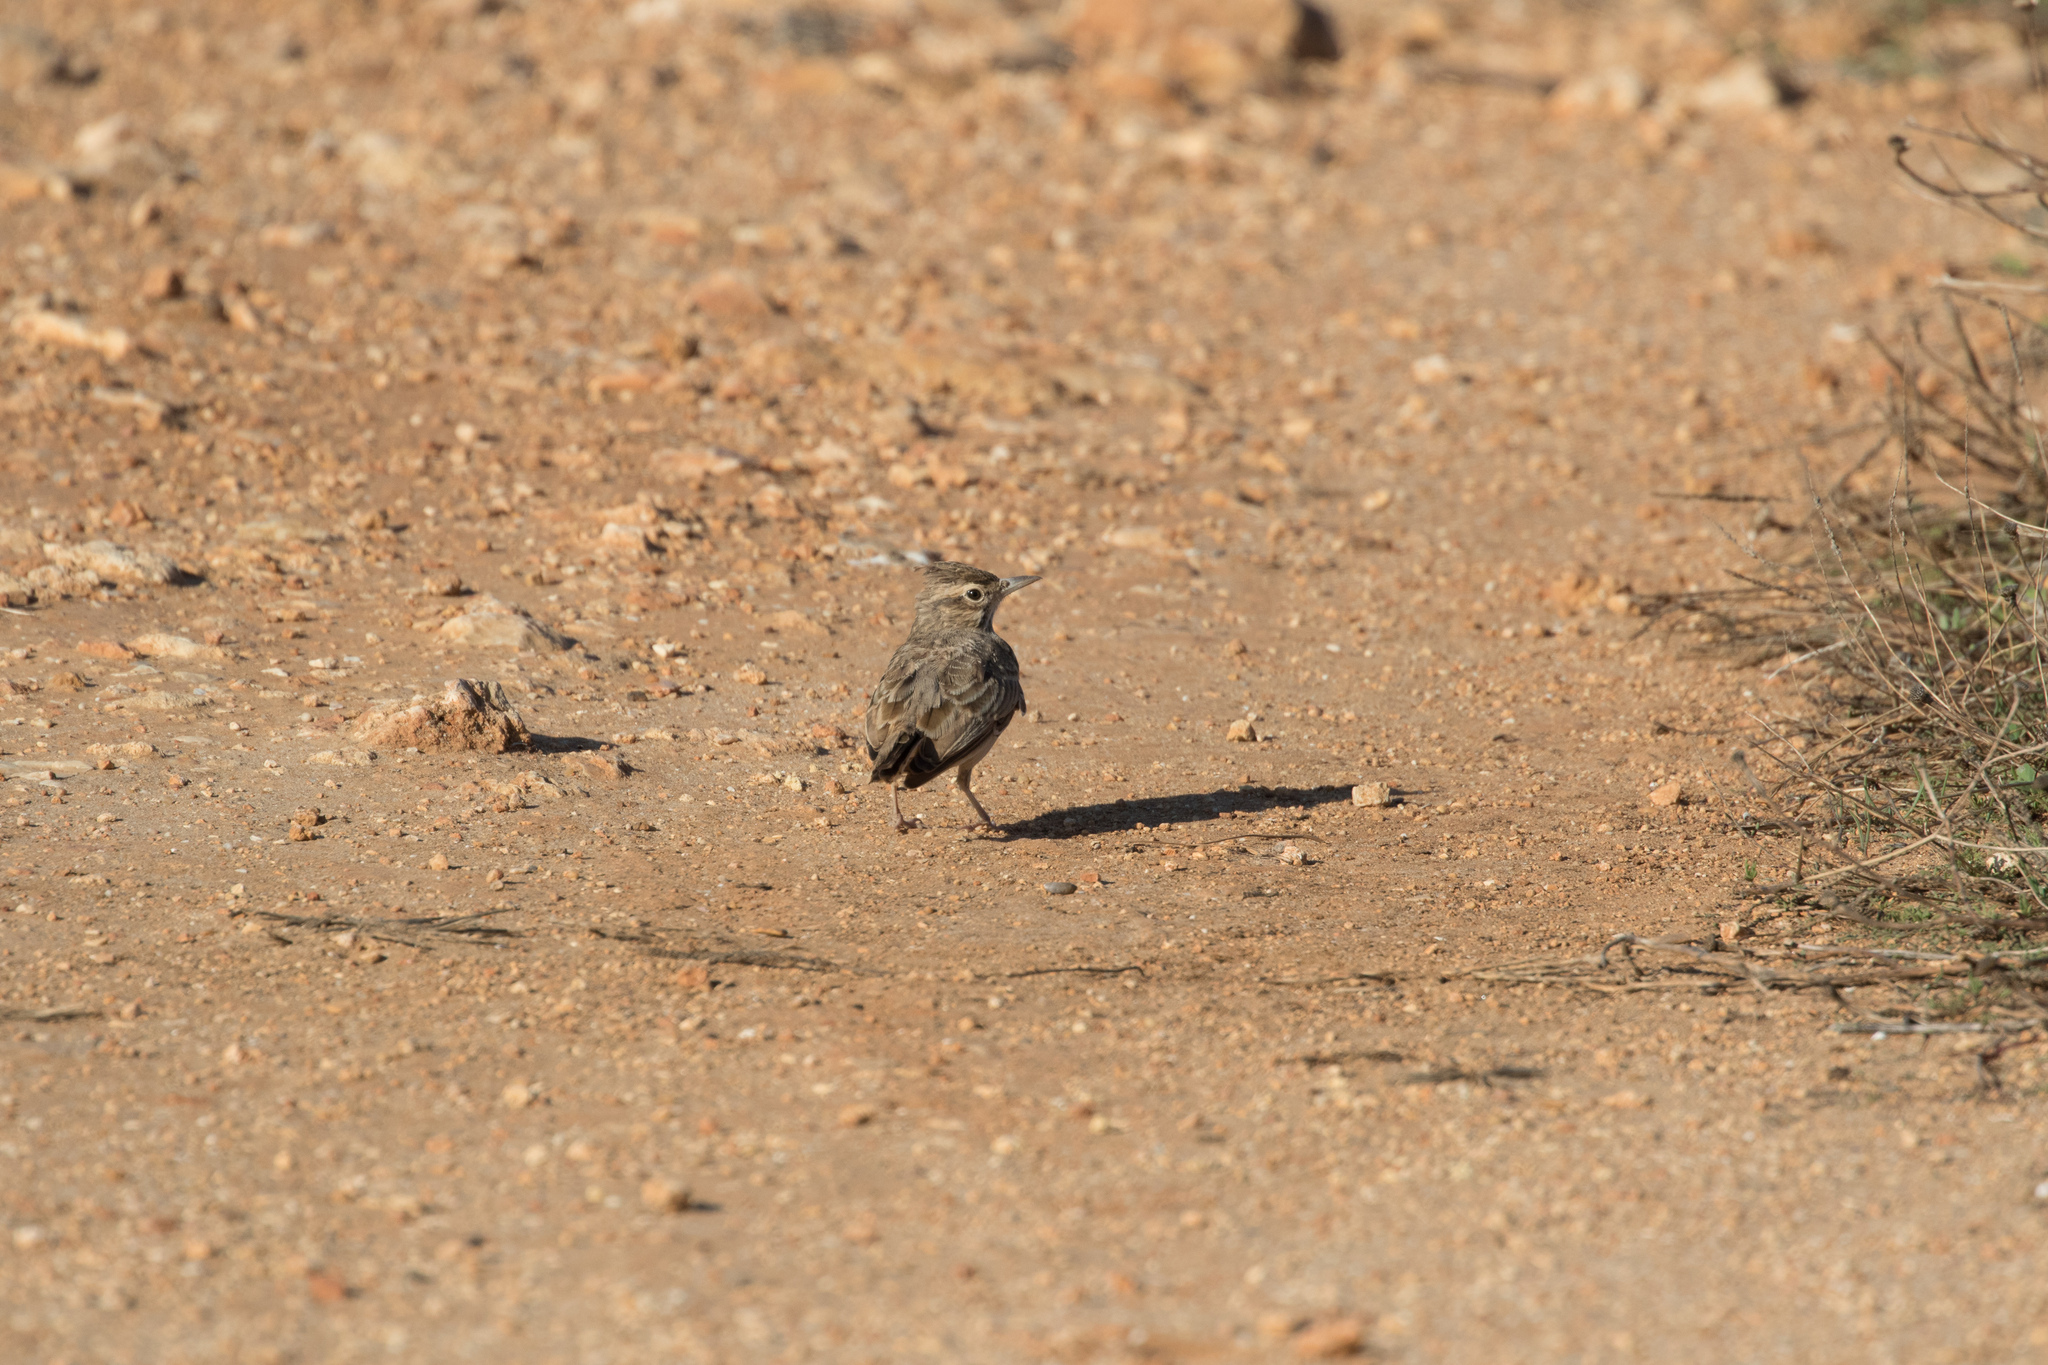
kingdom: Animalia
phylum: Chordata
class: Aves
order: Passeriformes
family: Alaudidae
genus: Galerida
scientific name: Galerida cristata
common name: Crested lark
